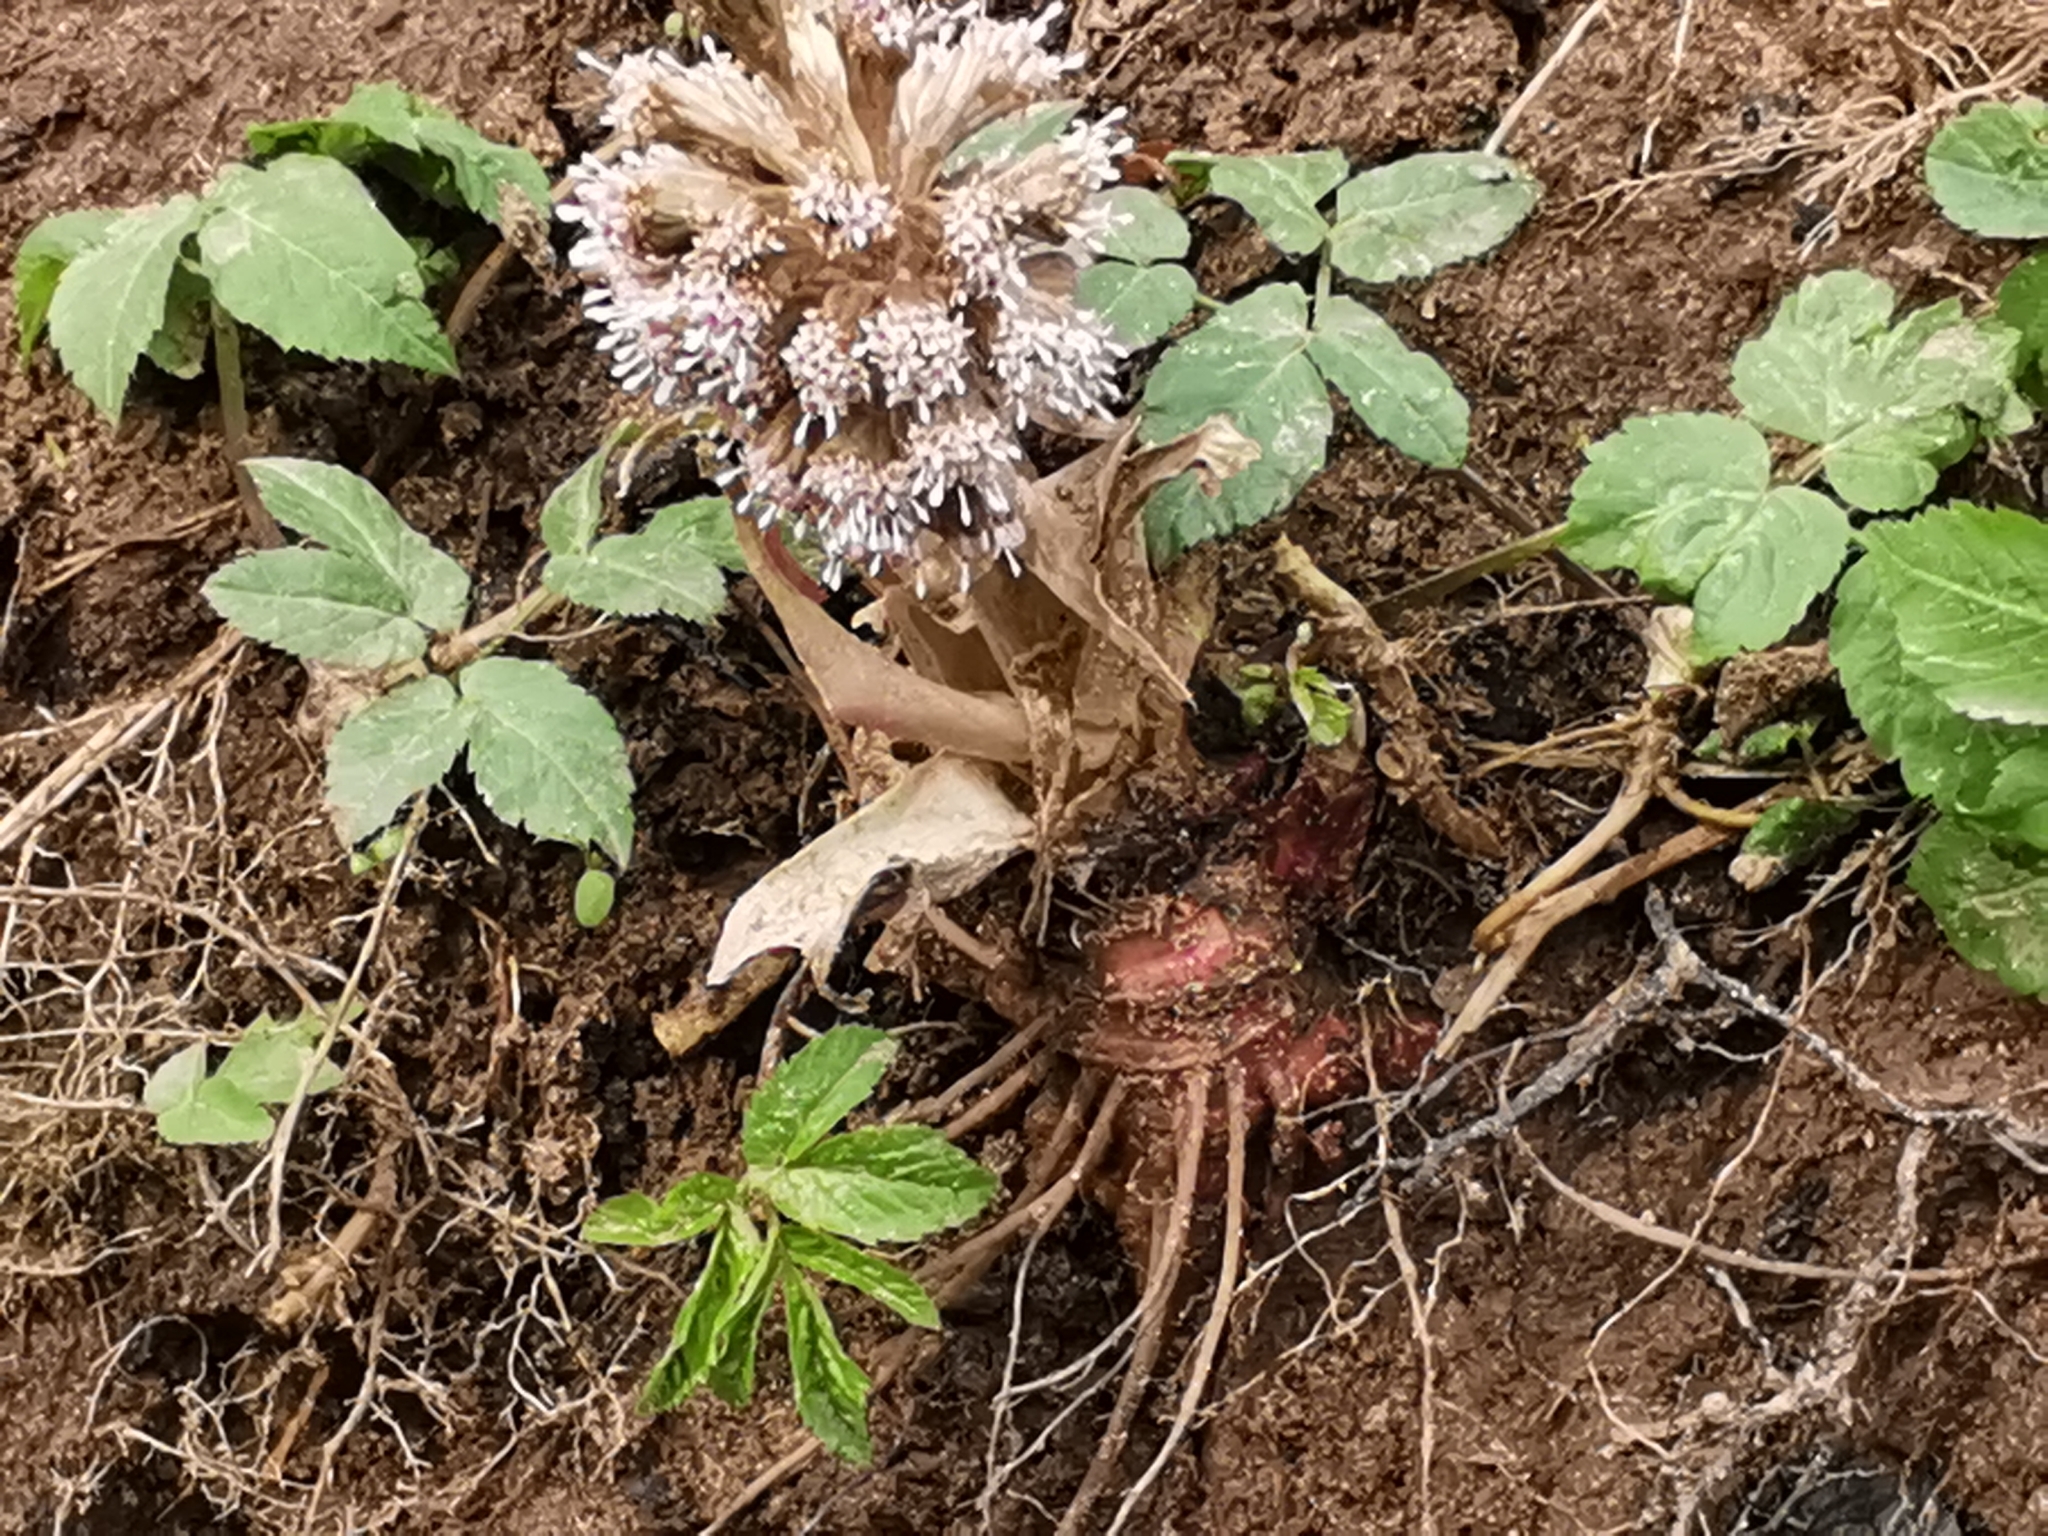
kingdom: Plantae
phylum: Tracheophyta
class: Magnoliopsida
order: Asterales
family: Asteraceae
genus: Petasites
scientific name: Petasites hybridus
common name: Butterbur
